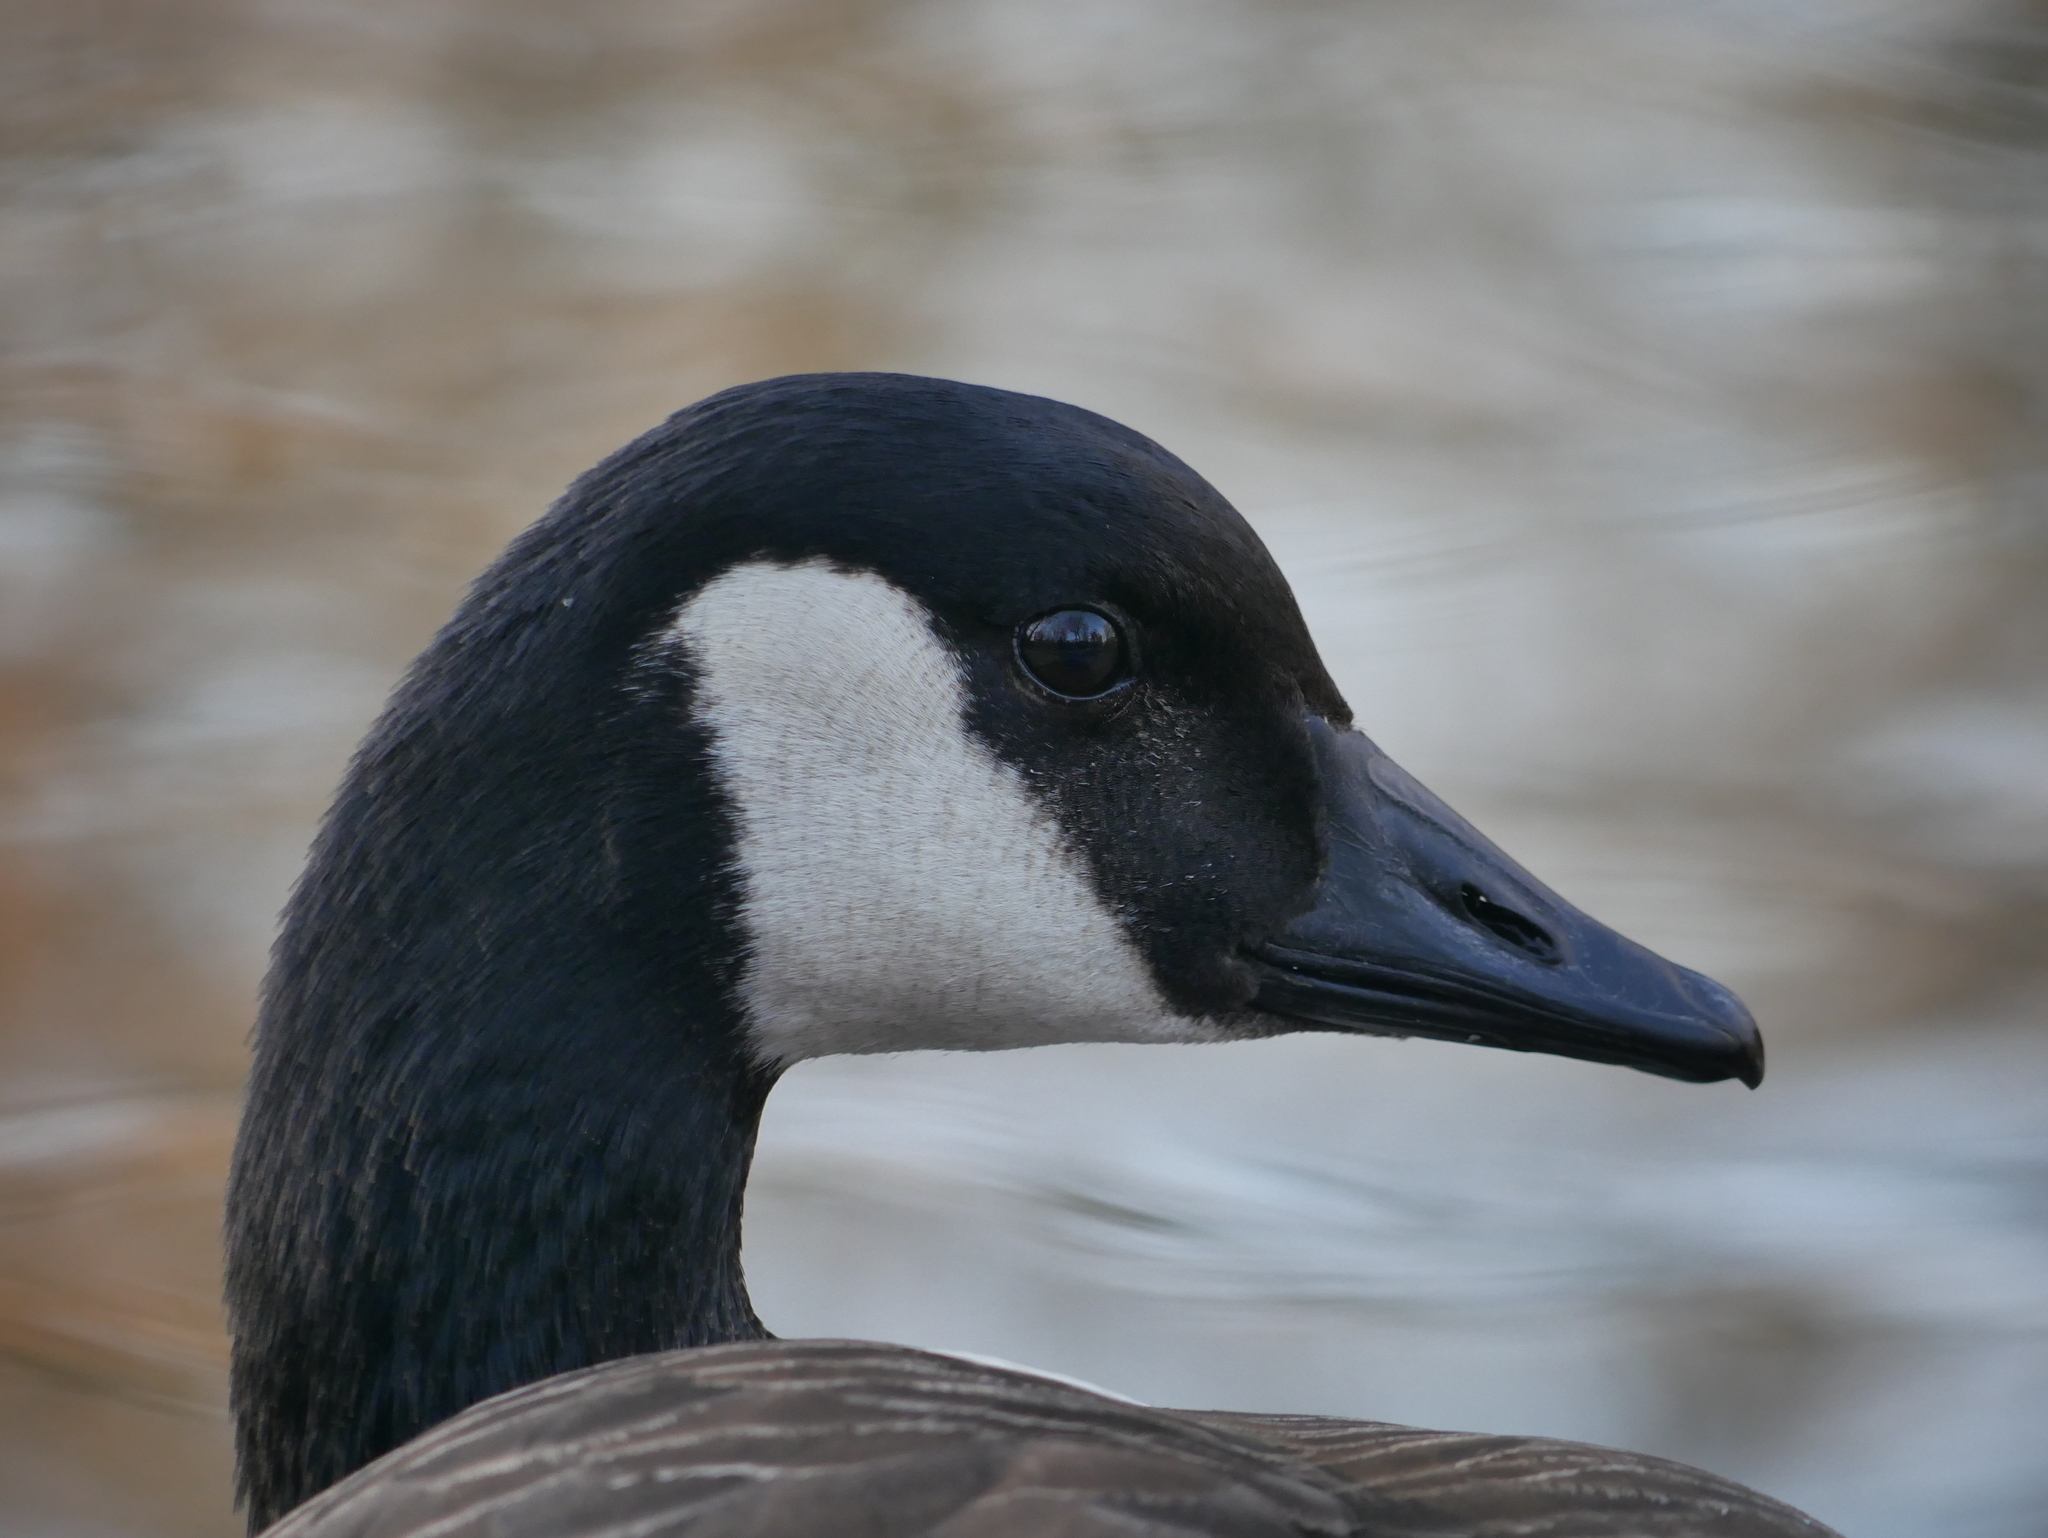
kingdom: Animalia
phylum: Chordata
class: Aves
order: Anseriformes
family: Anatidae
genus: Branta
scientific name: Branta canadensis
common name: Canada goose
